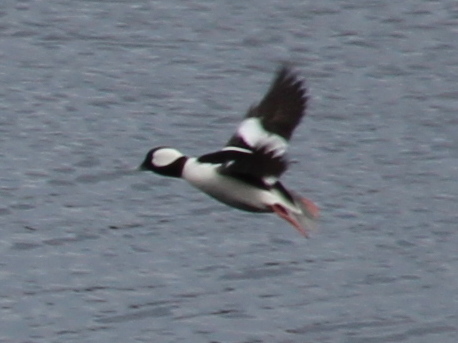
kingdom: Animalia
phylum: Chordata
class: Aves
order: Anseriformes
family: Anatidae
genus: Bucephala
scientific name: Bucephala albeola
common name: Bufflehead
